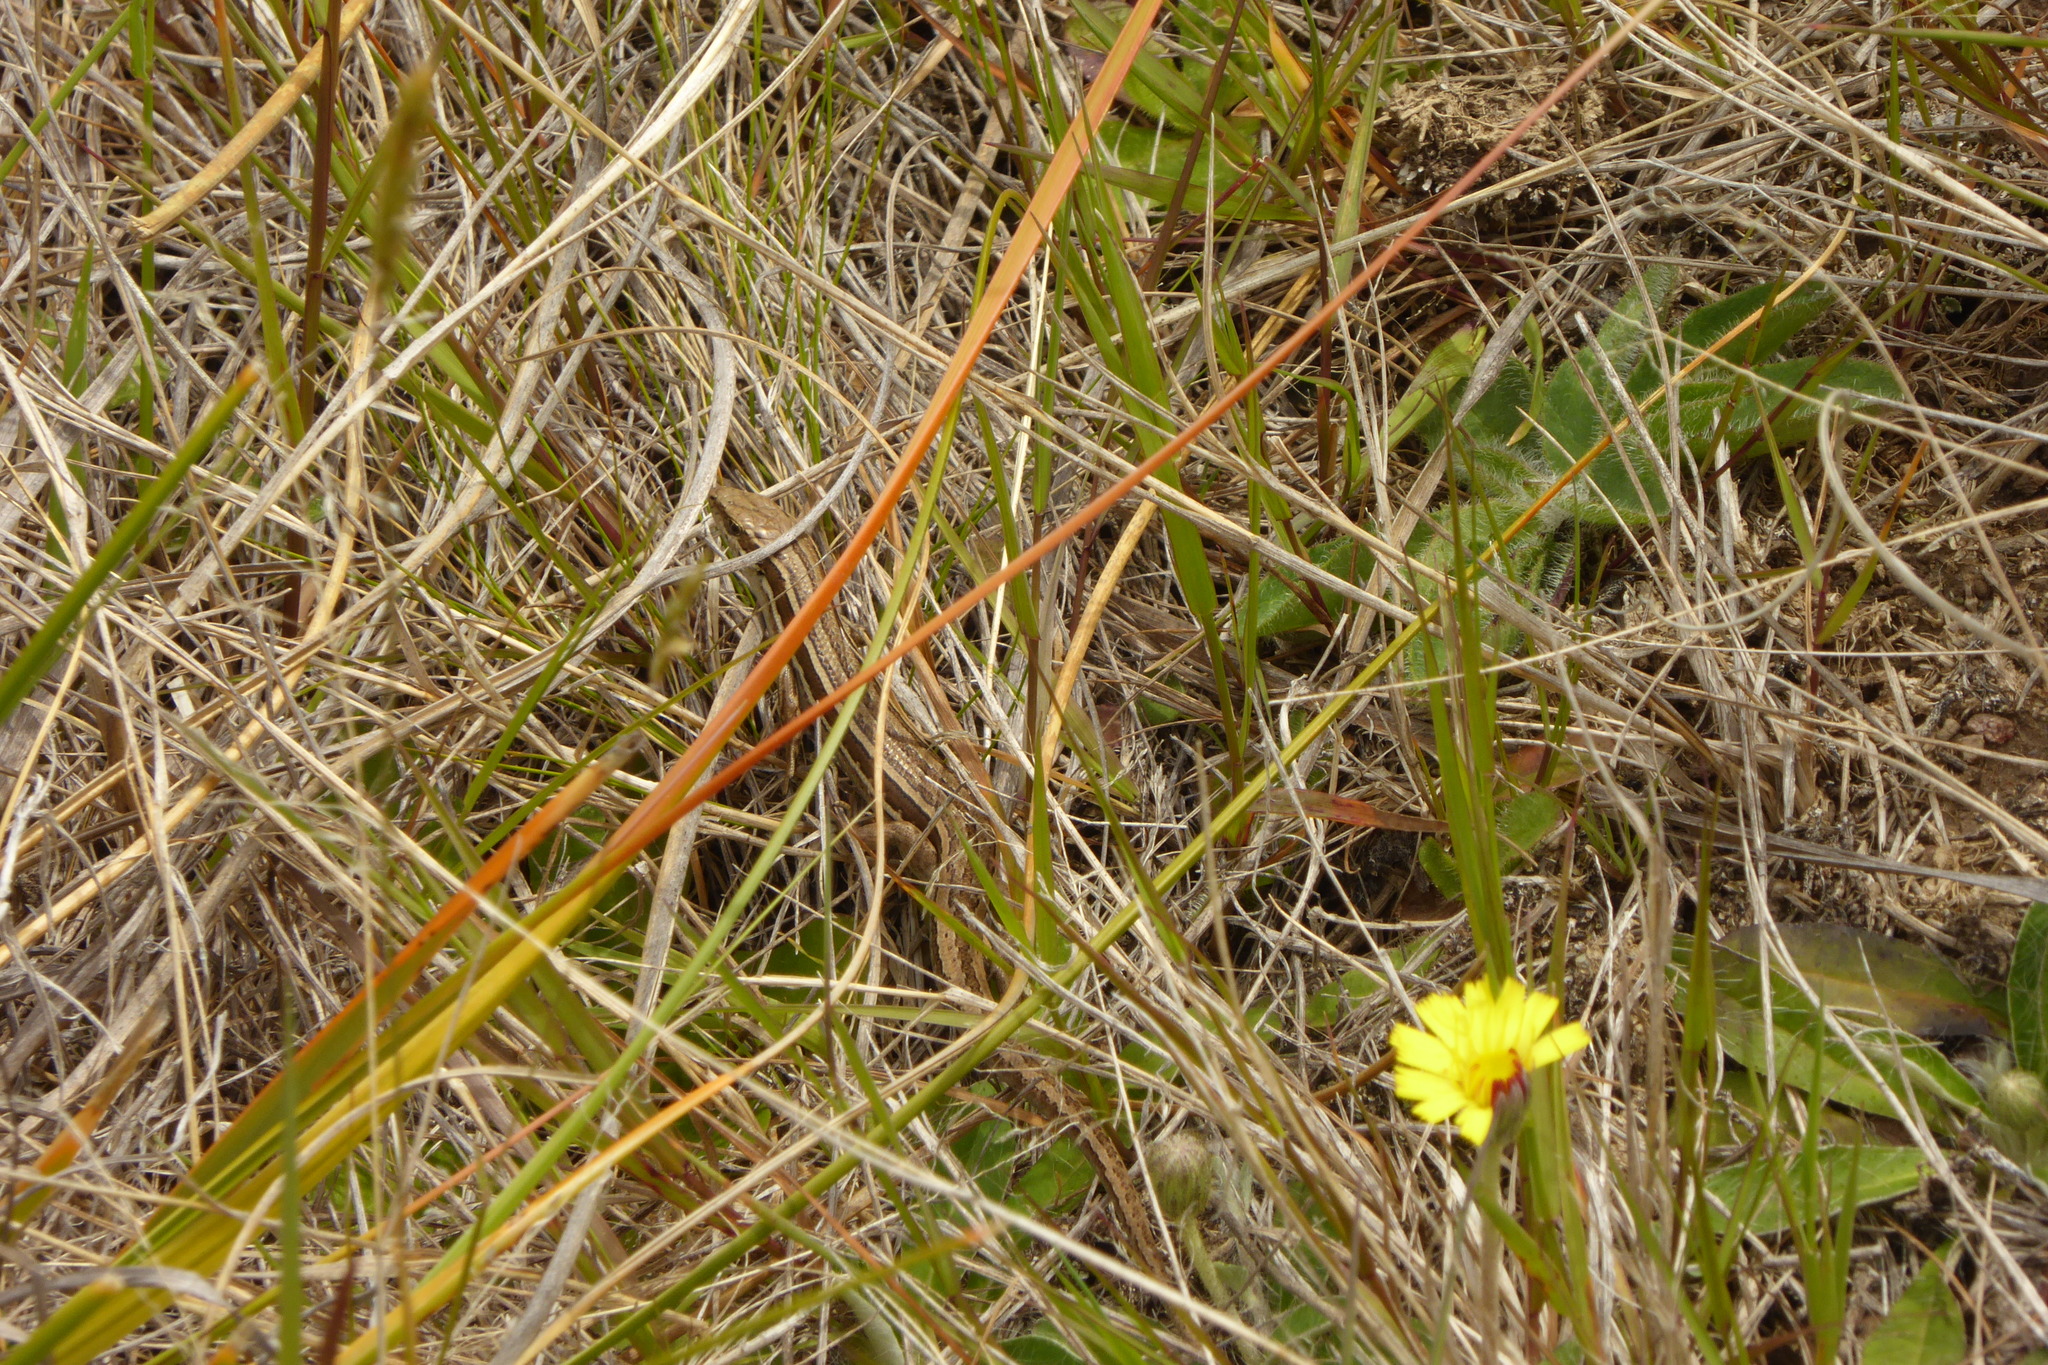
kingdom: Animalia
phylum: Chordata
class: Squamata
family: Scincidae
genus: Oligosoma
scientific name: Oligosoma maccanni
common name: Mccann’s skink
